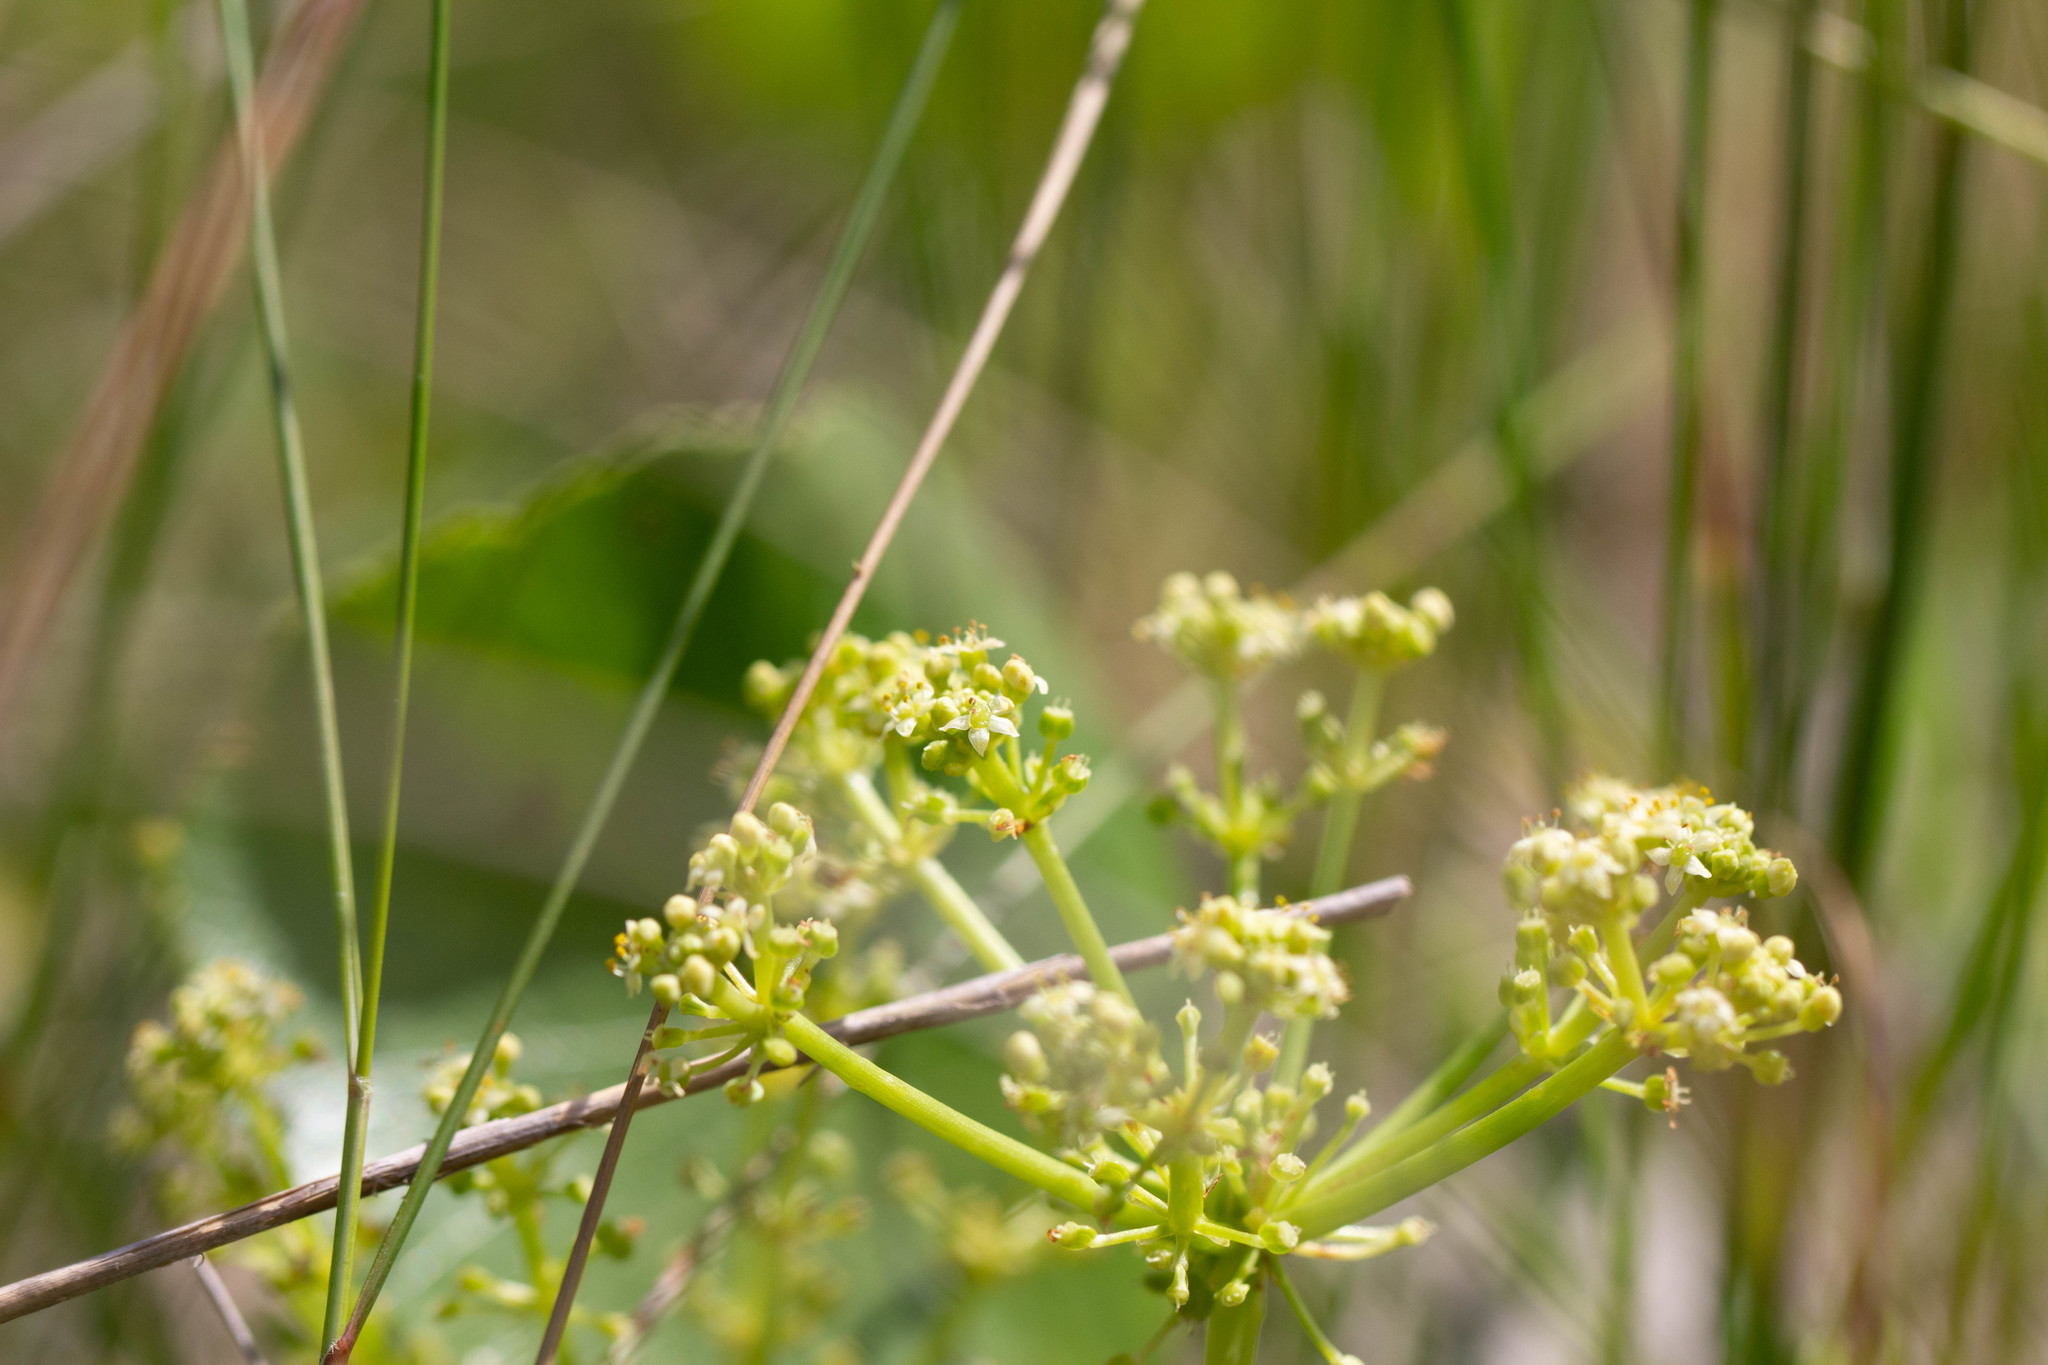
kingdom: Plantae
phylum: Tracheophyta
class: Magnoliopsida
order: Apiales
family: Araliaceae
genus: Hydrocotyle
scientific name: Hydrocotyle bonariensis
